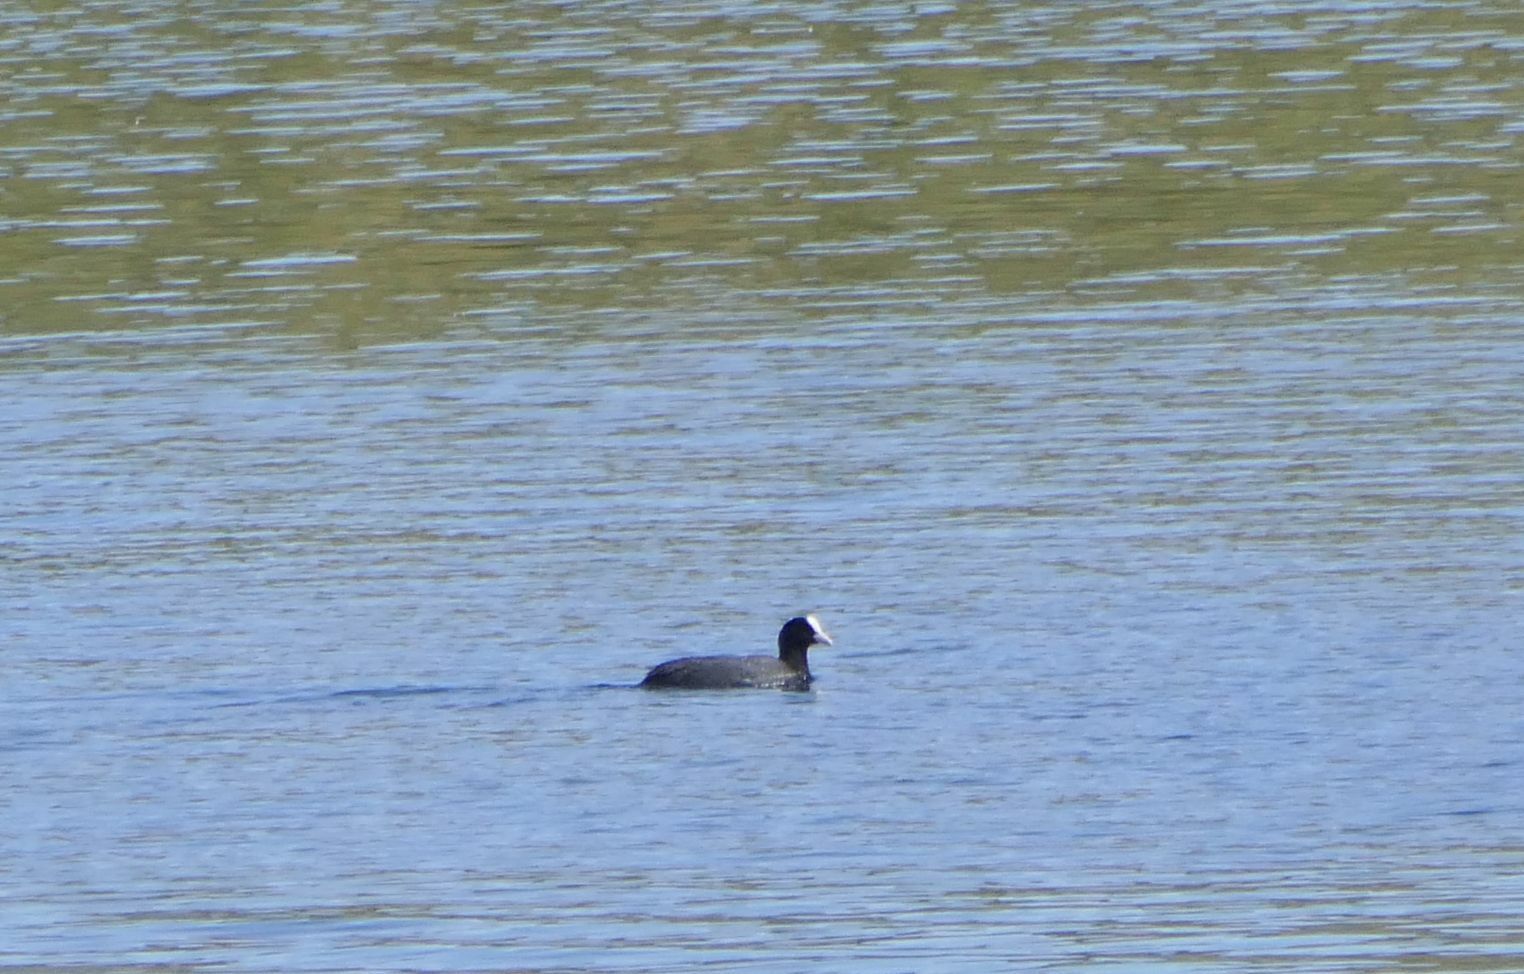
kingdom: Animalia
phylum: Chordata
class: Aves
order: Gruiformes
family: Rallidae
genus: Fulica
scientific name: Fulica atra
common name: Eurasian coot
